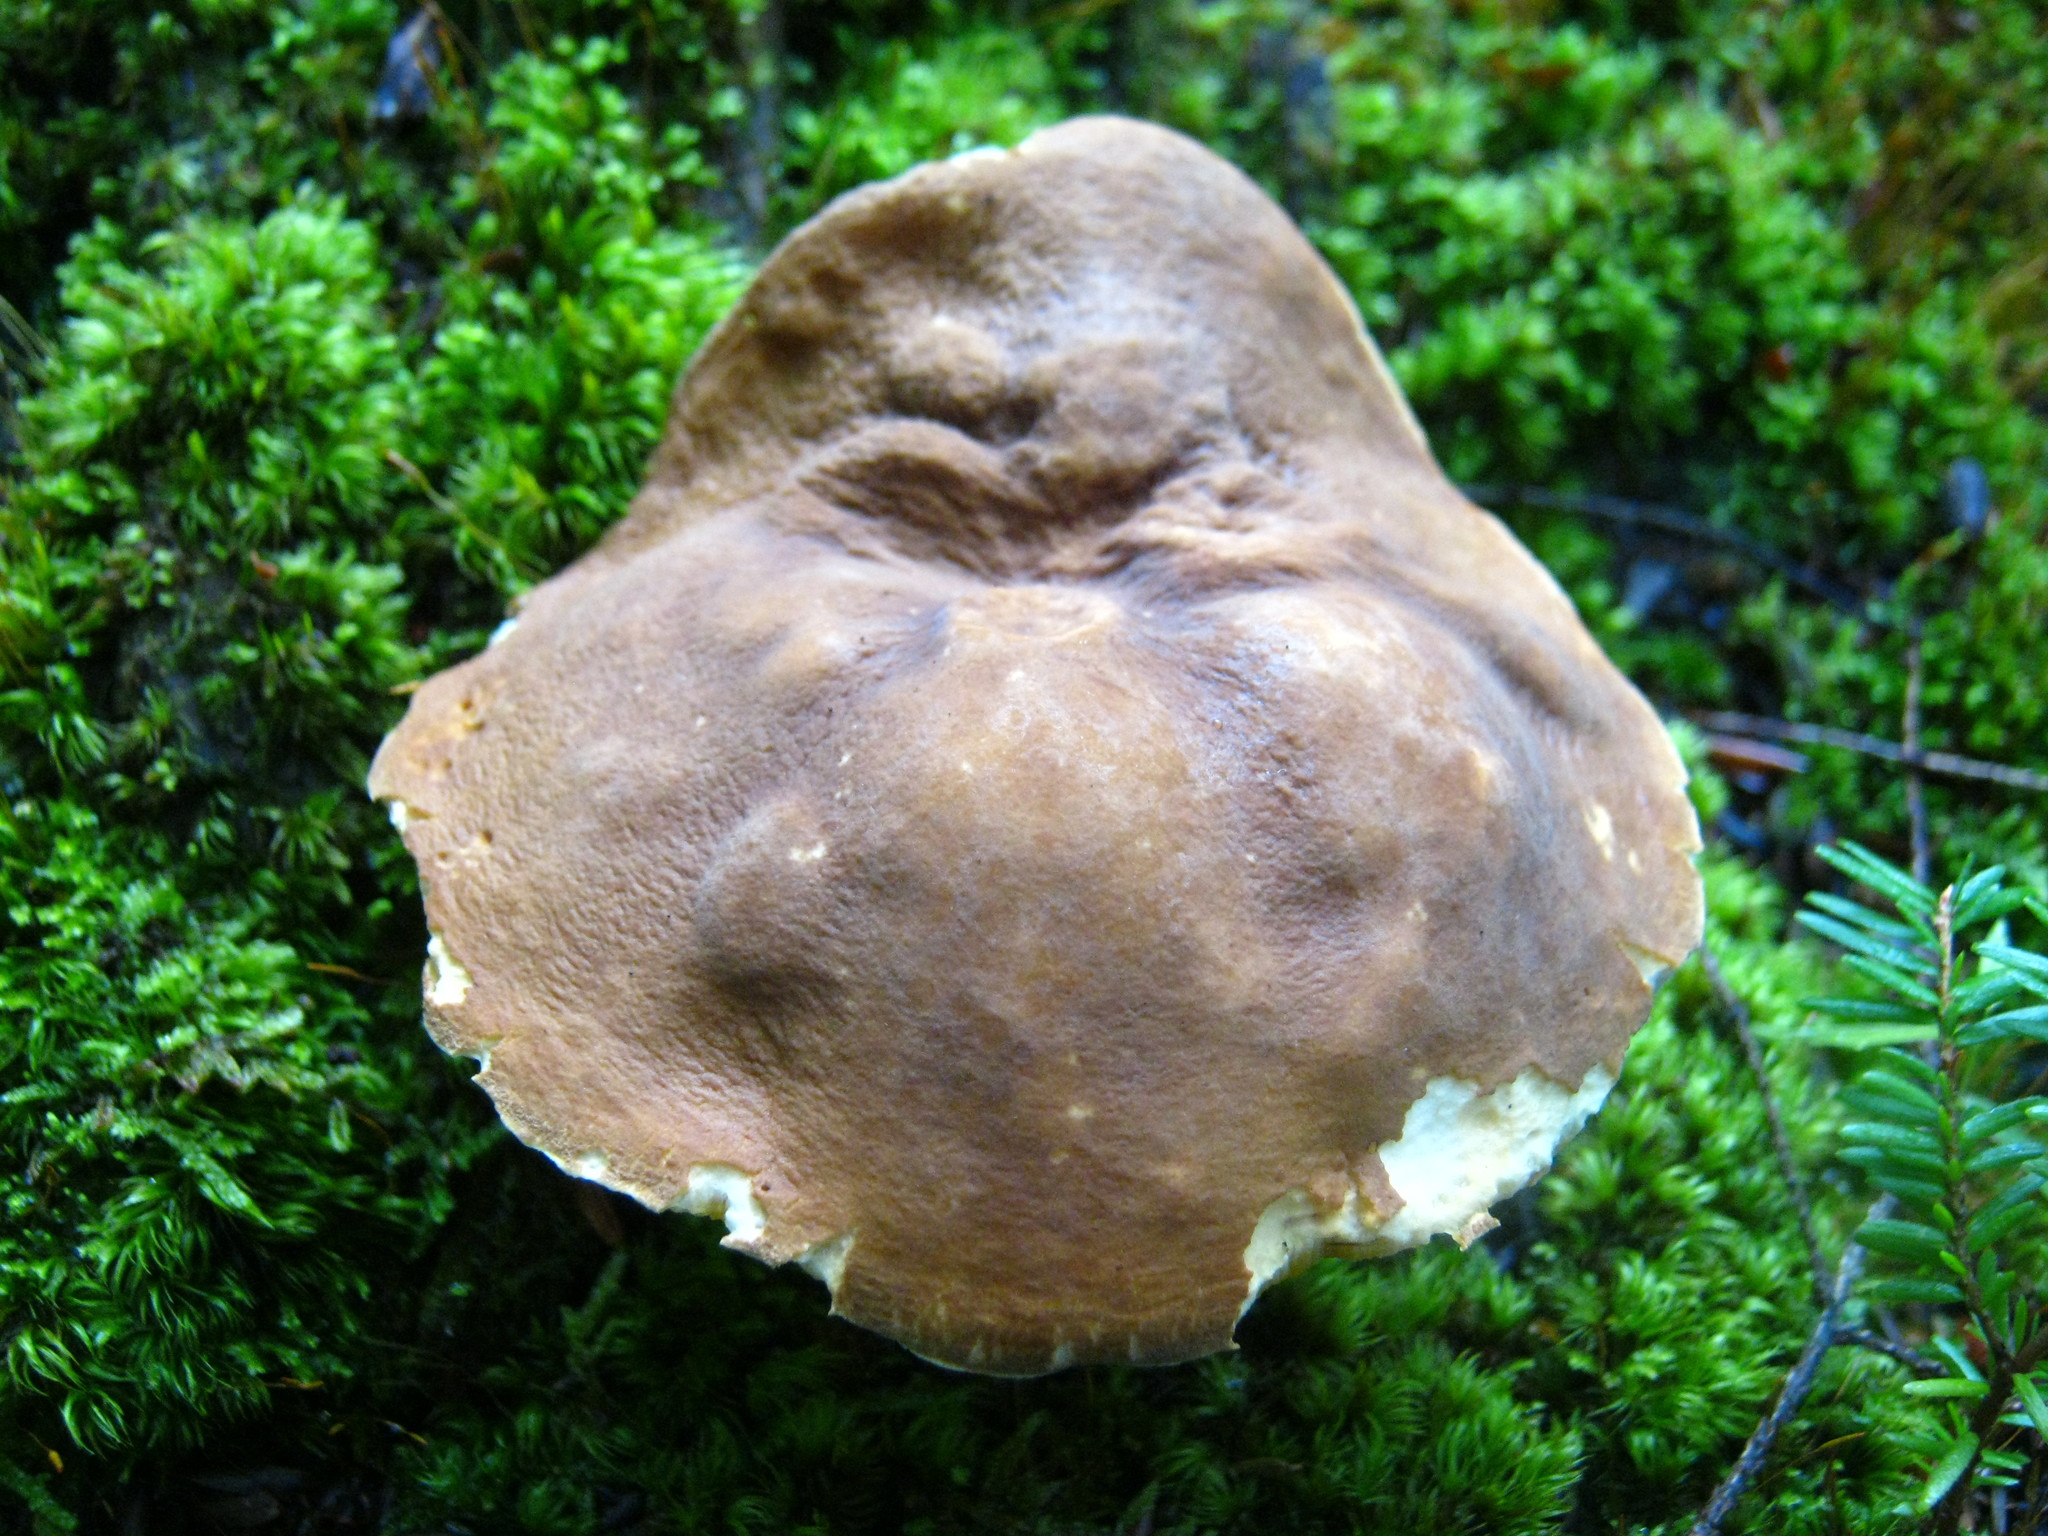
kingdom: Fungi
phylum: Basidiomycota
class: Agaricomycetes
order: Boletales
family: Boletaceae
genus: Xanthoconium
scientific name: Xanthoconium affine
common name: Spotted bolete
